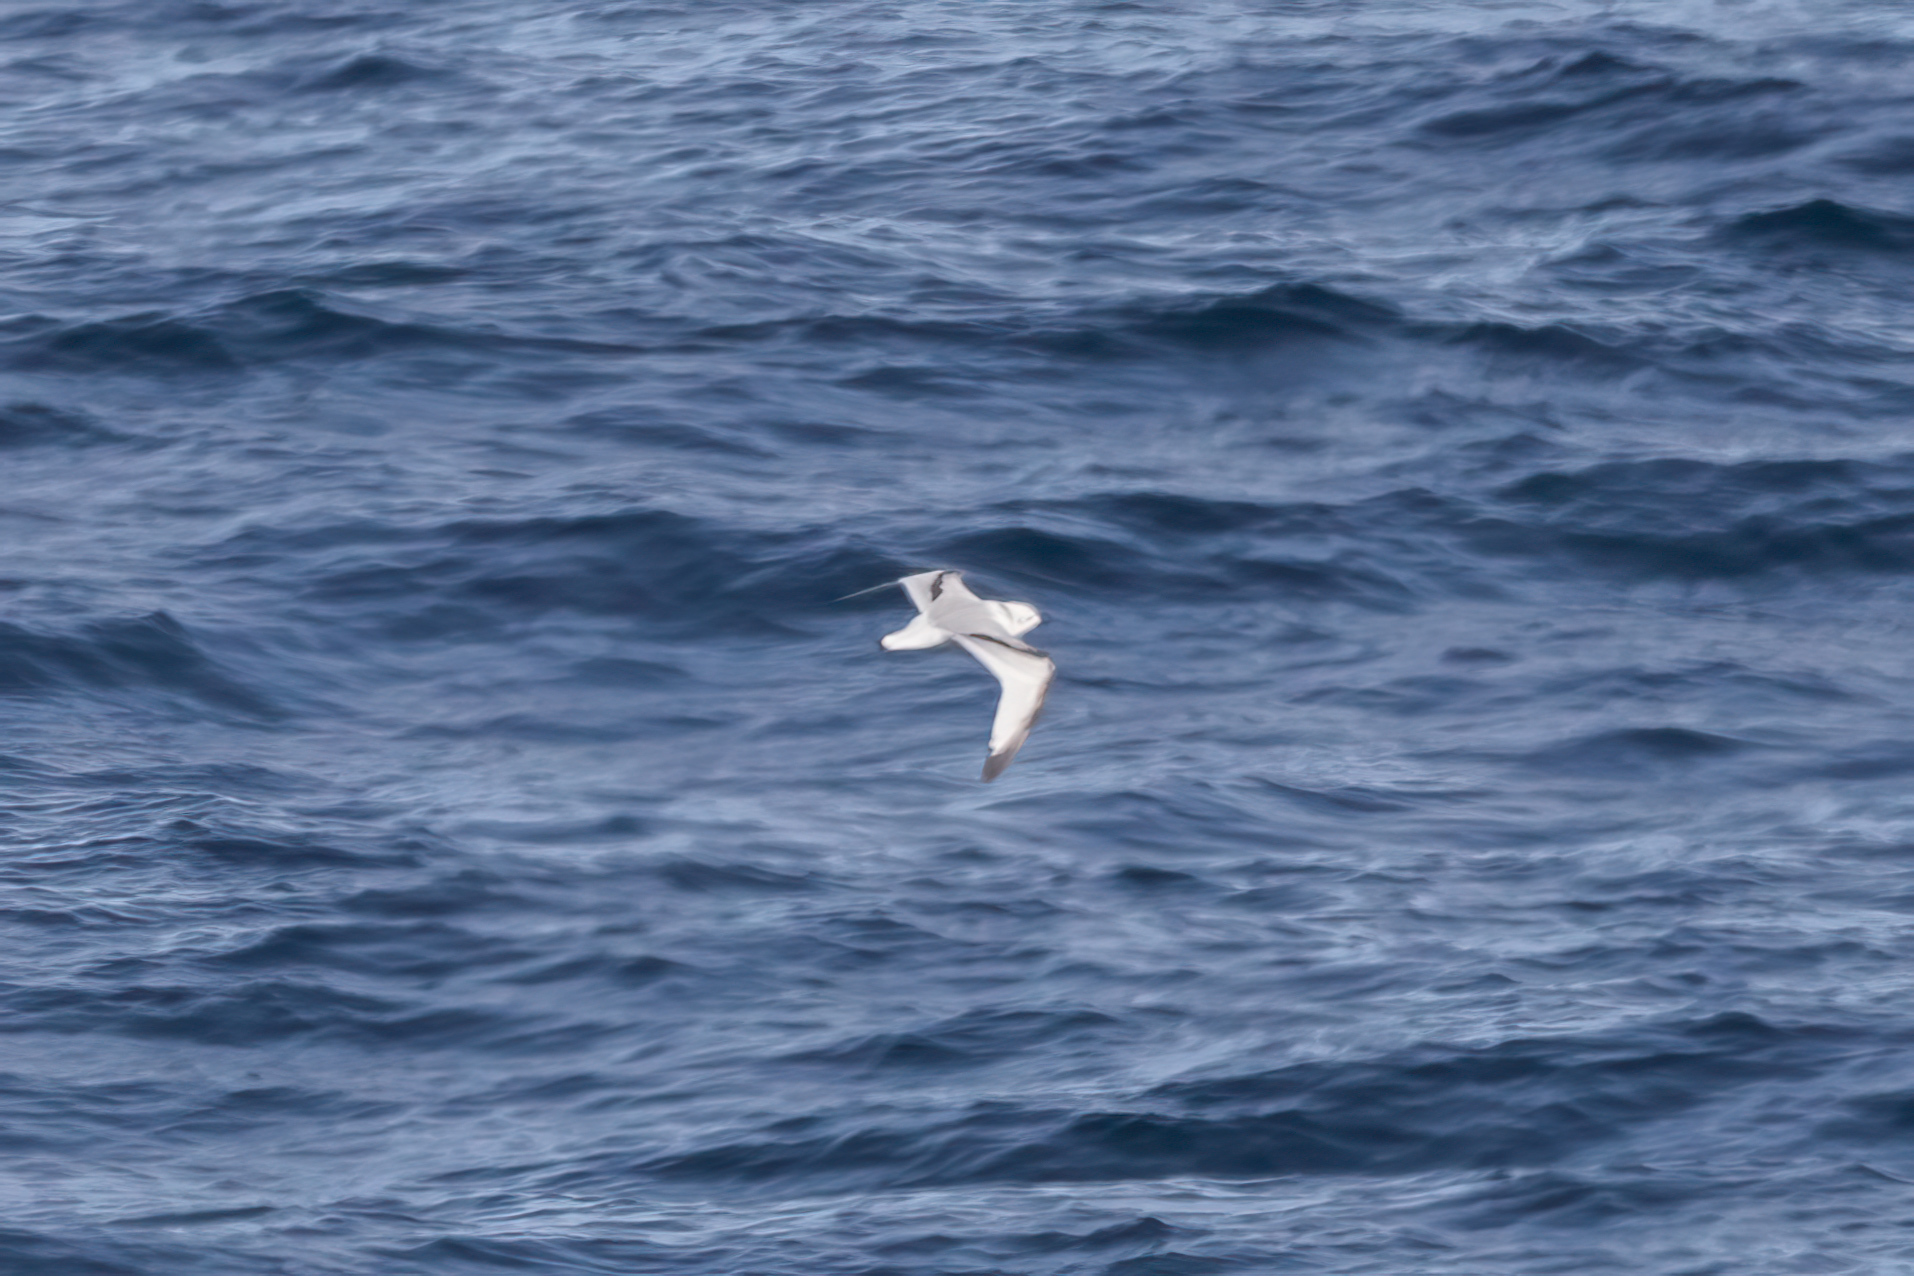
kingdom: Animalia
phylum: Chordata
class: Aves
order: Charadriiformes
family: Laridae
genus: Rissa
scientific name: Rissa tridactyla
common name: Black-legged kittiwake
